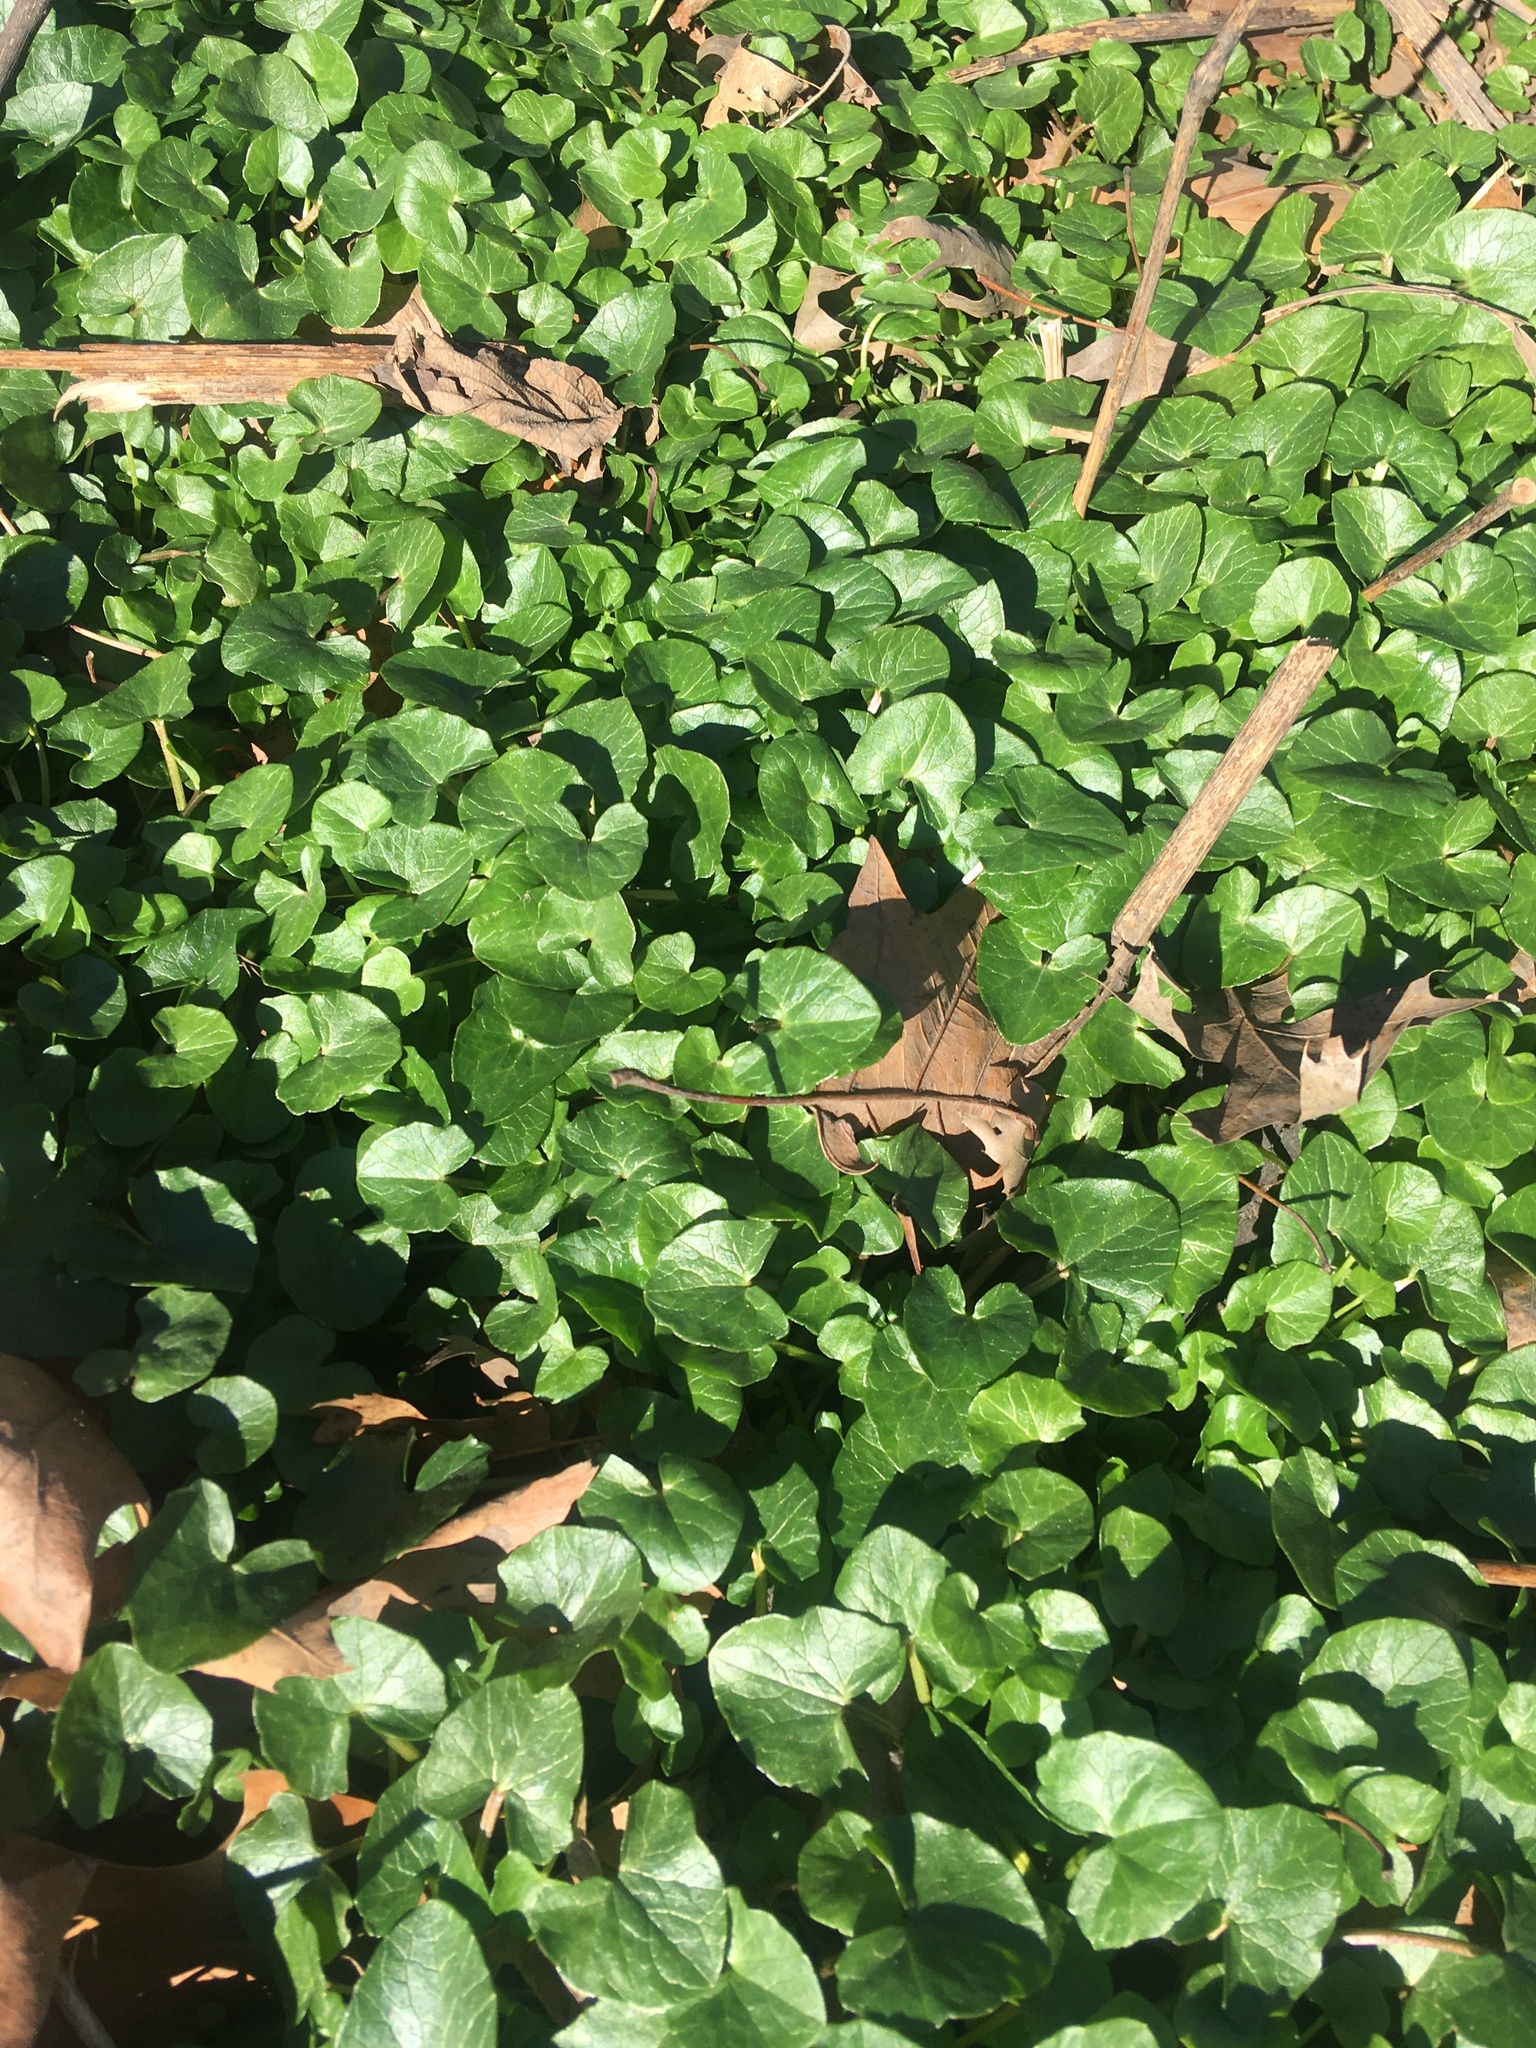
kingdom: Plantae
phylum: Tracheophyta
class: Magnoliopsida
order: Ranunculales
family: Ranunculaceae
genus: Ficaria
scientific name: Ficaria verna
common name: Lesser celandine
